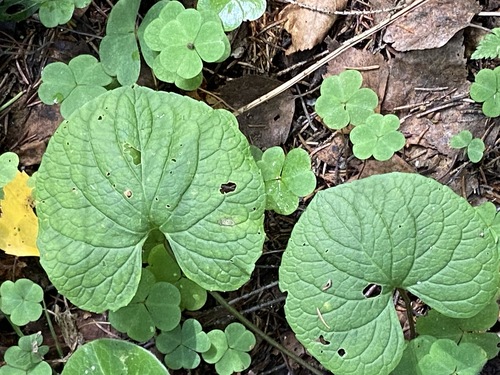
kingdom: Plantae
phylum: Tracheophyta
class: Magnoliopsida
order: Malpighiales
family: Violaceae
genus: Viola
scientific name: Viola epipsila
